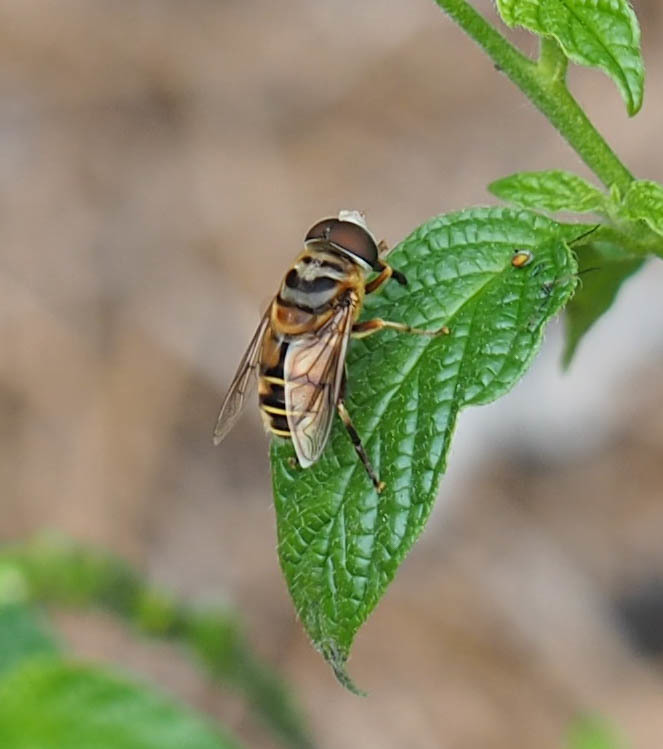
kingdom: Animalia
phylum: Arthropoda
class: Insecta
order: Diptera
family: Syrphidae
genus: Palpada
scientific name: Palpada vinetorum
